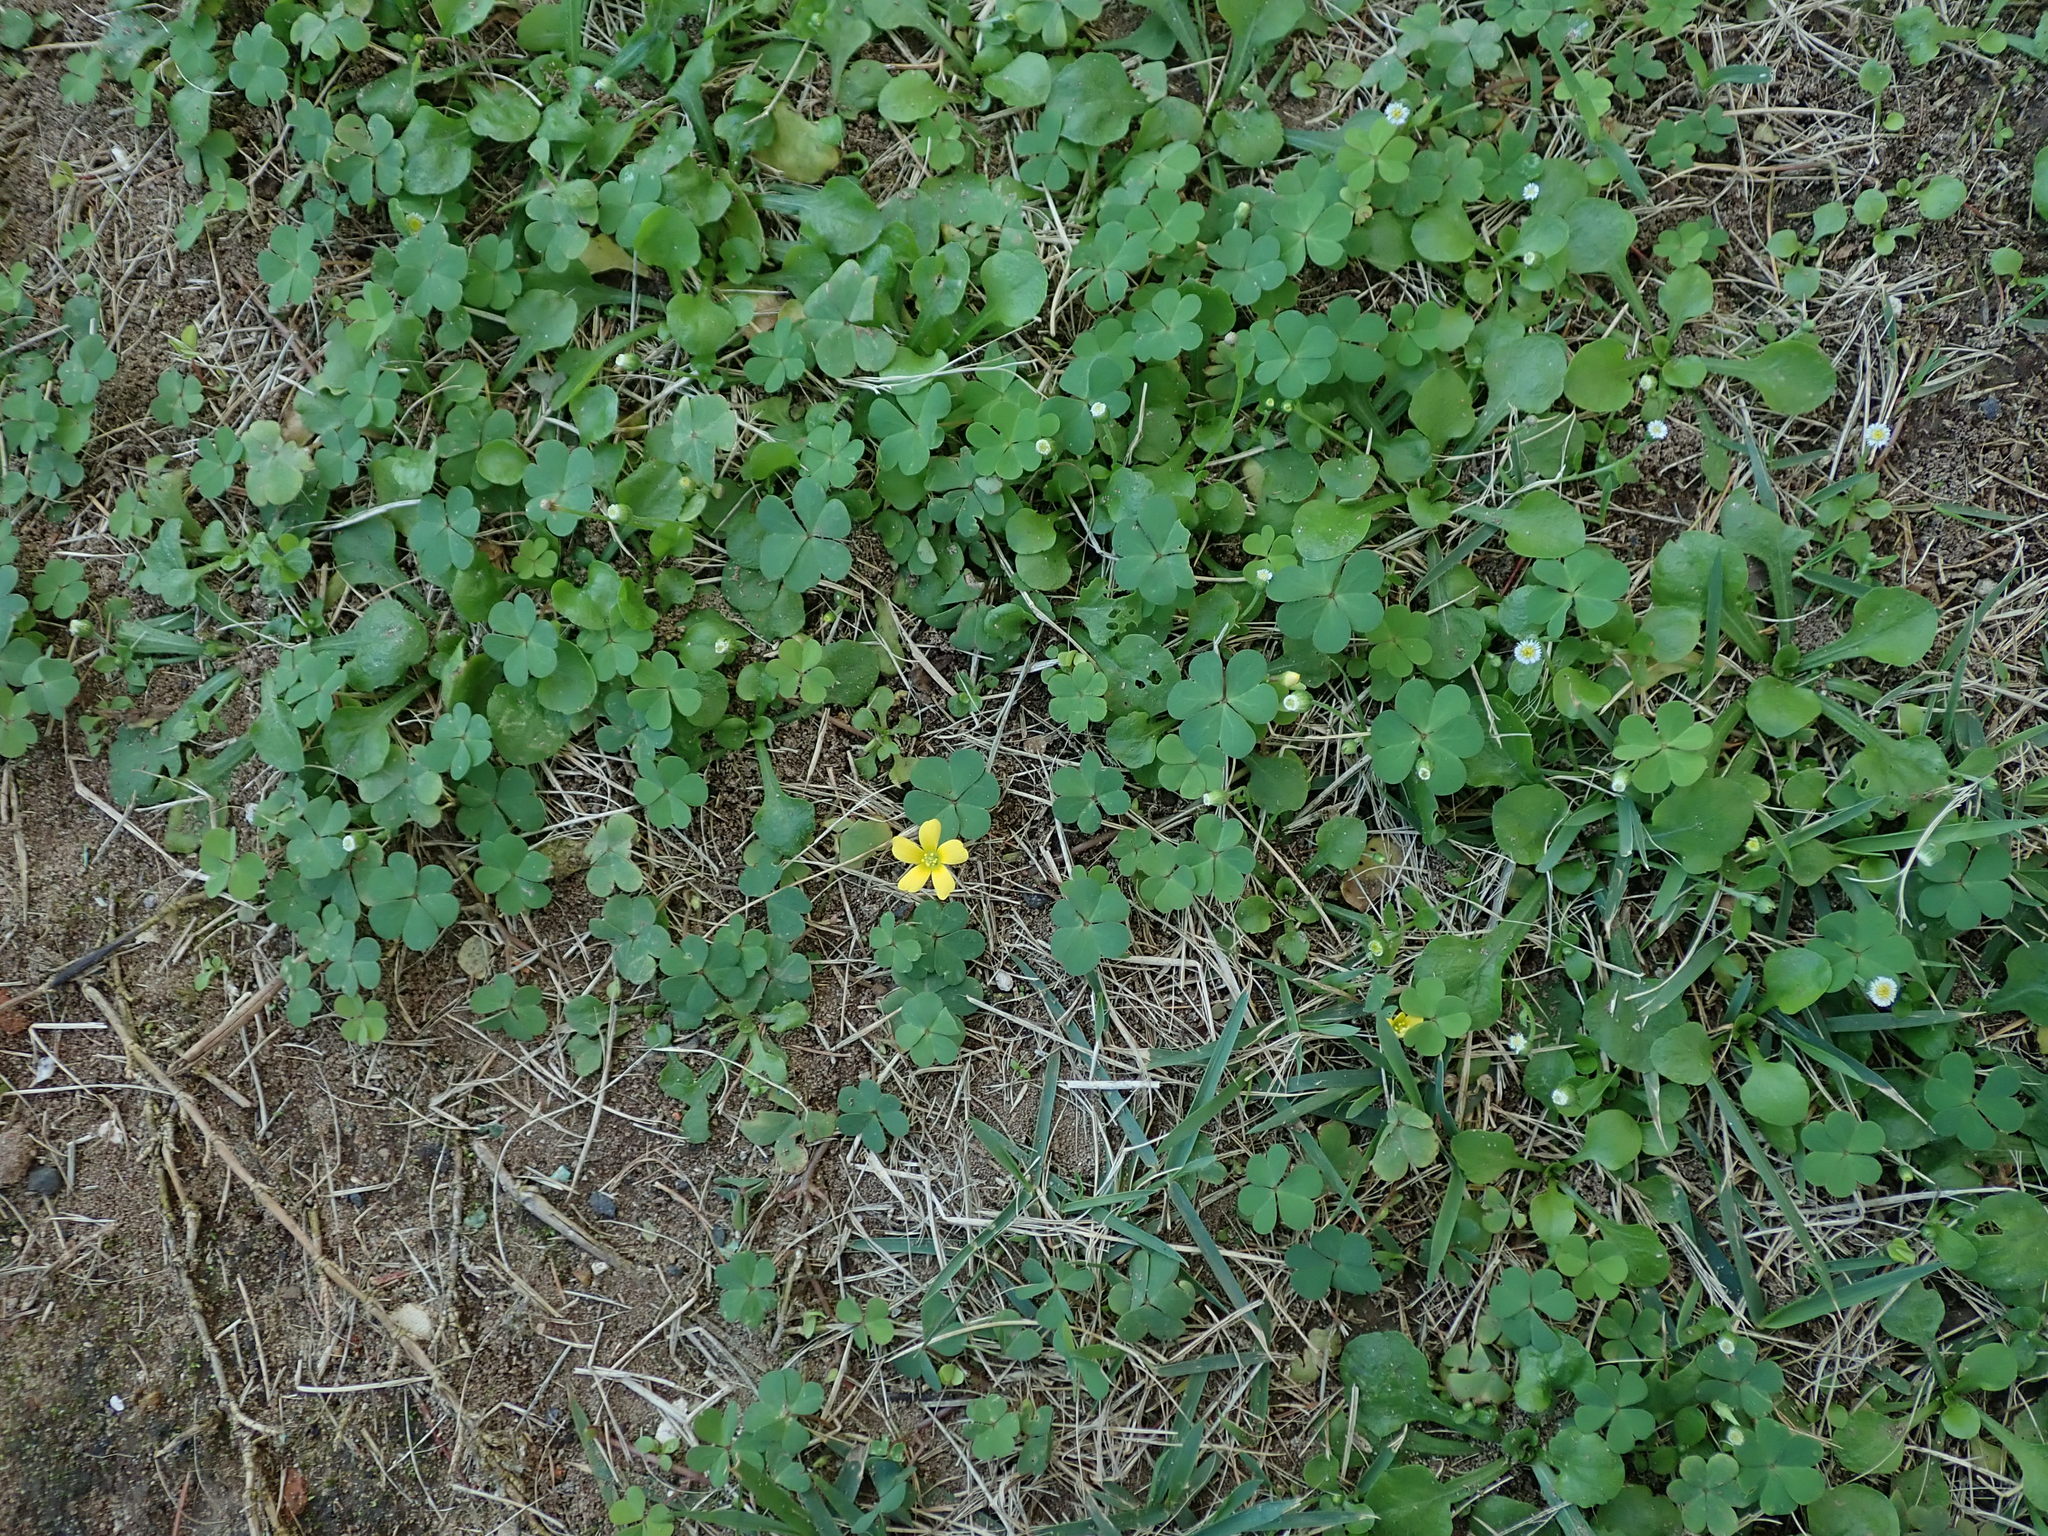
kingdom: Plantae
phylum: Tracheophyta
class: Magnoliopsida
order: Oxalidales
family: Oxalidaceae
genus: Oxalis
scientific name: Oxalis corniculata
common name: Procumbent yellow-sorrel
